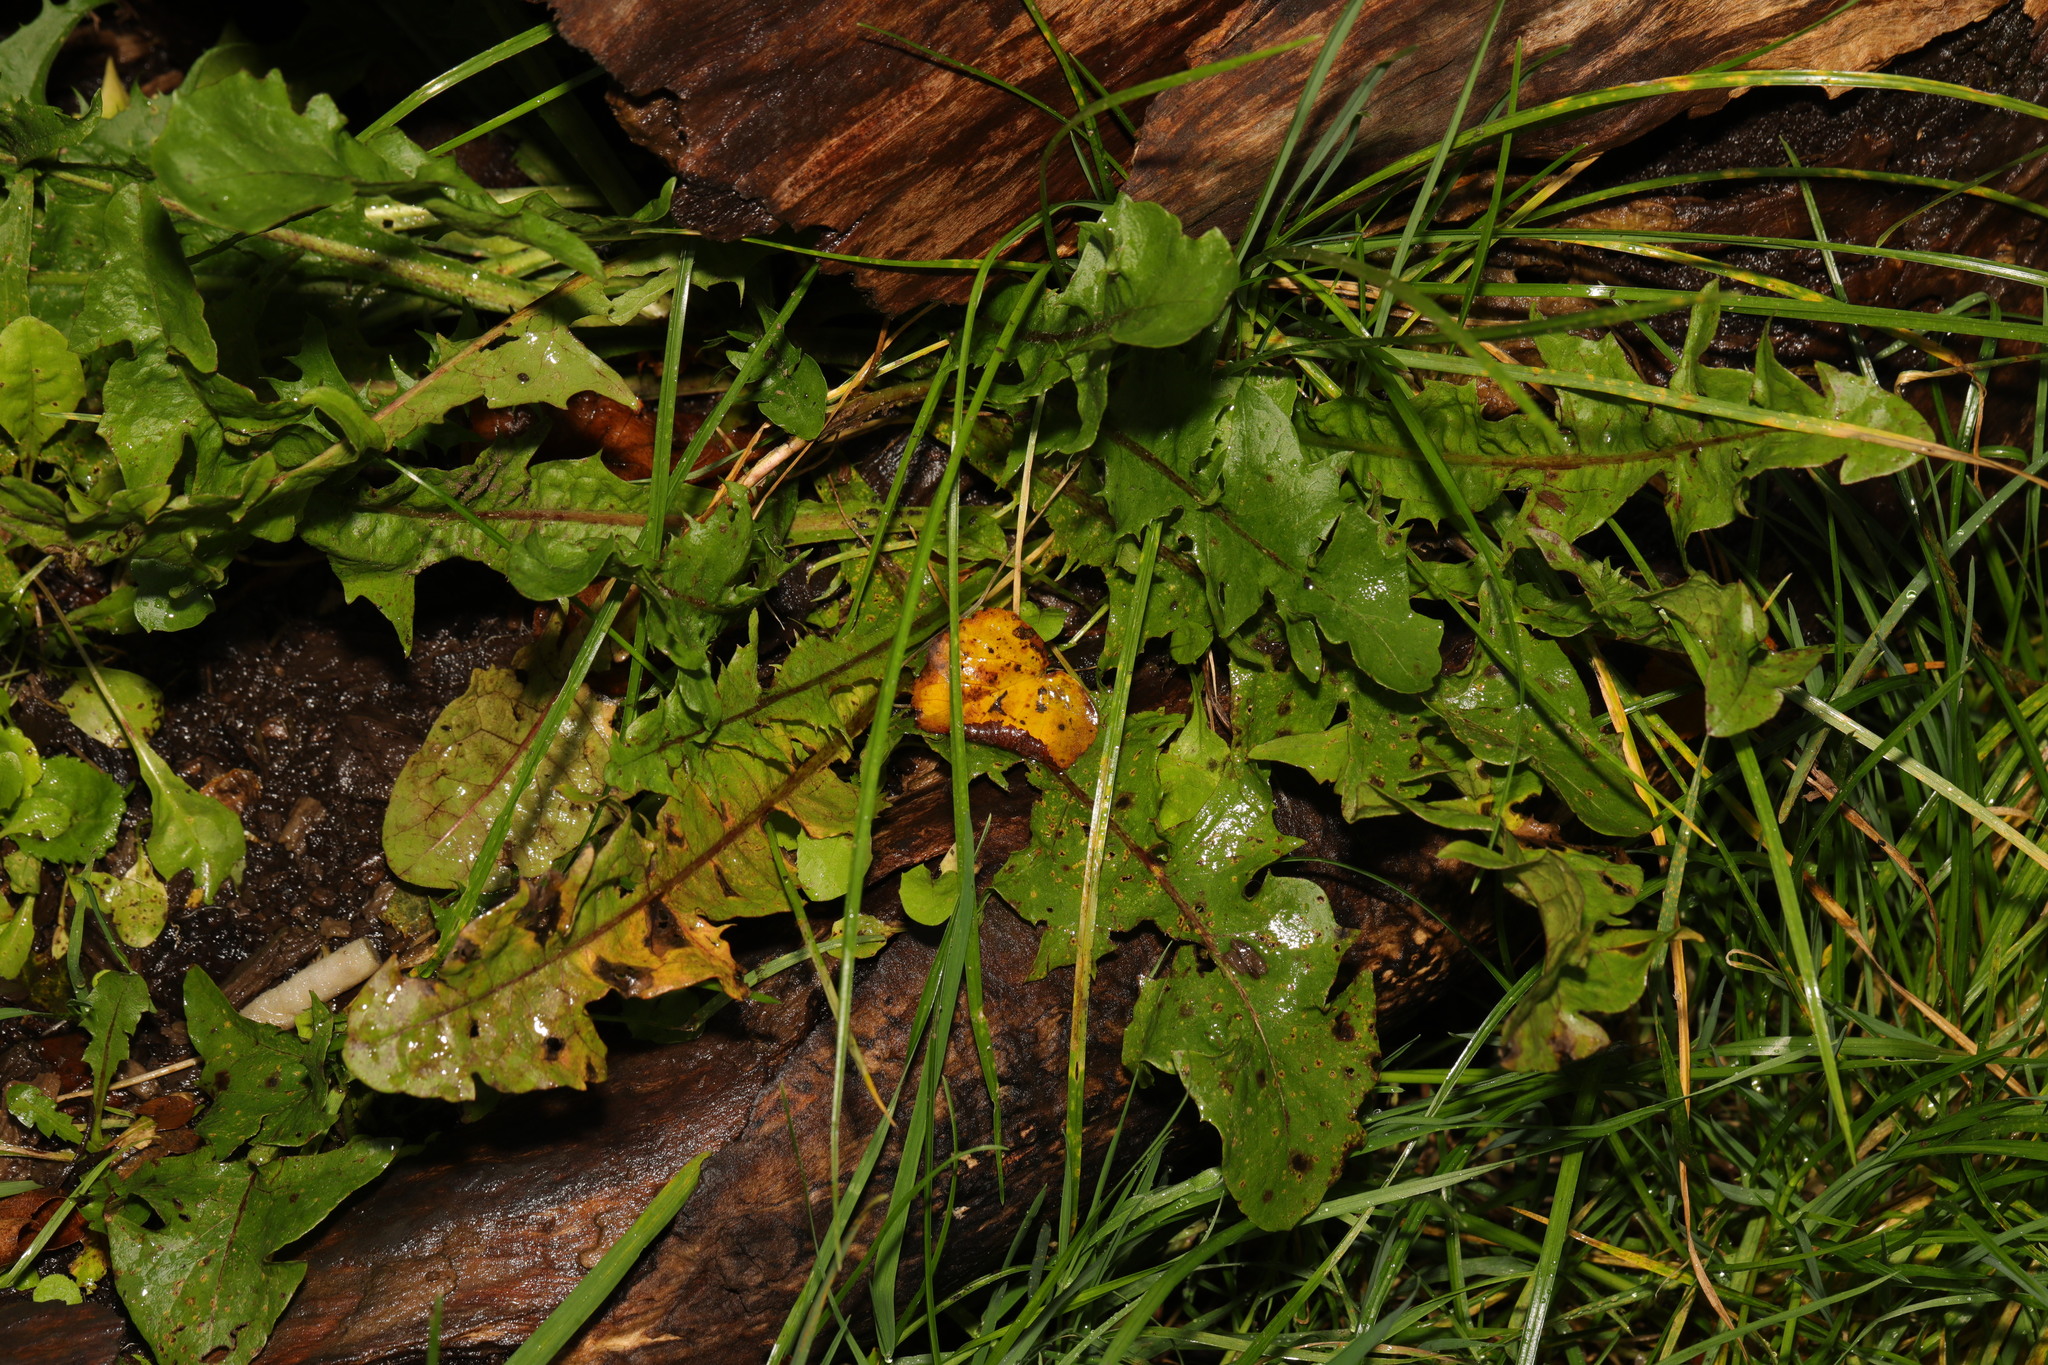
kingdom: Plantae
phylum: Tracheophyta
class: Magnoliopsida
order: Asterales
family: Asteraceae
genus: Taraxacum
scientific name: Taraxacum officinale
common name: Common dandelion
